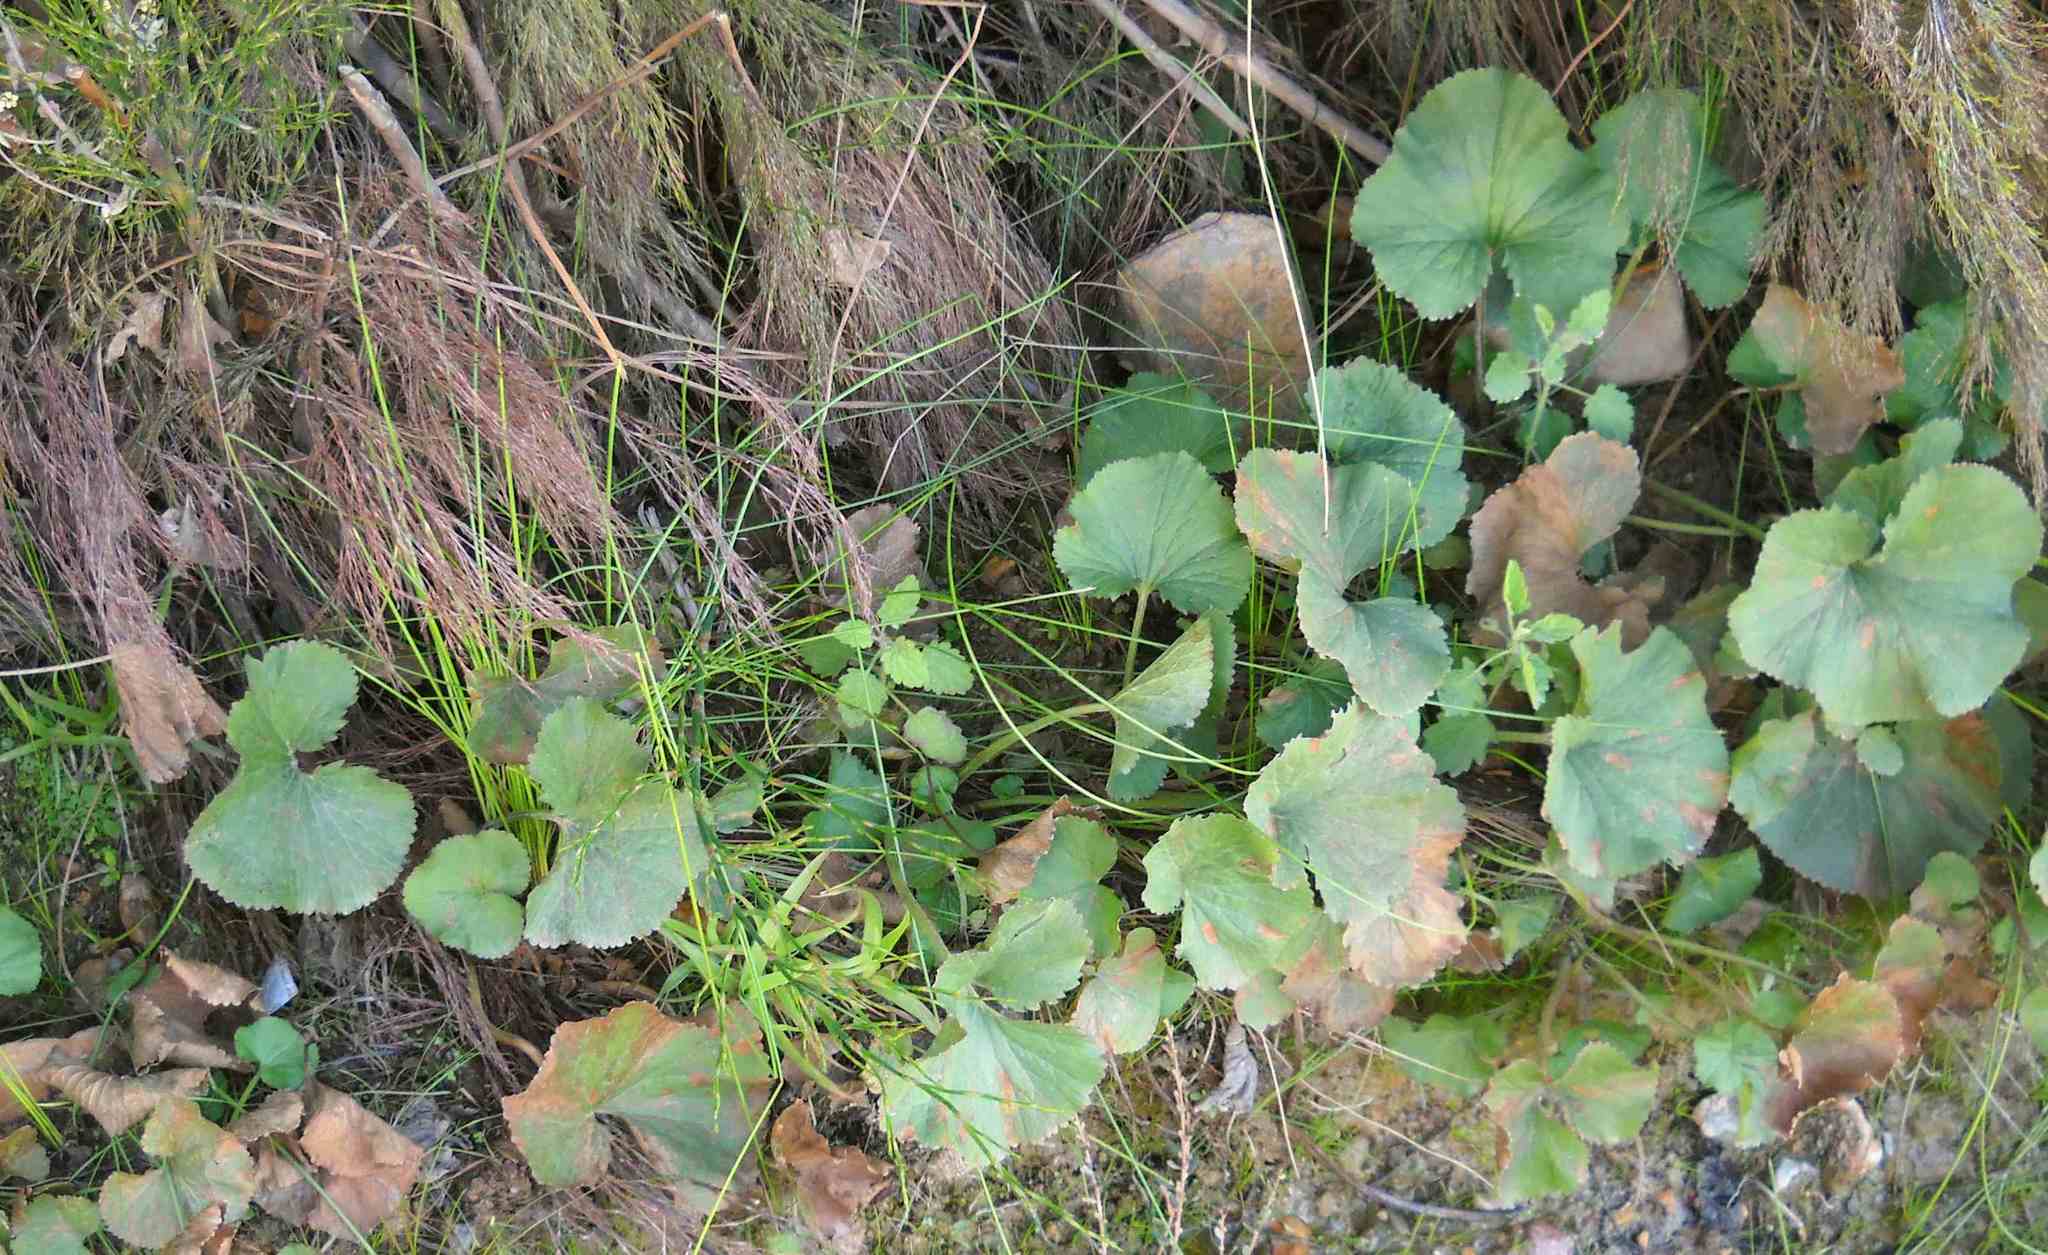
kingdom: Plantae
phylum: Tracheophyta
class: Magnoliopsida
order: Gunnerales
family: Gunneraceae
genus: Gunnera
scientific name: Gunnera perpensa
